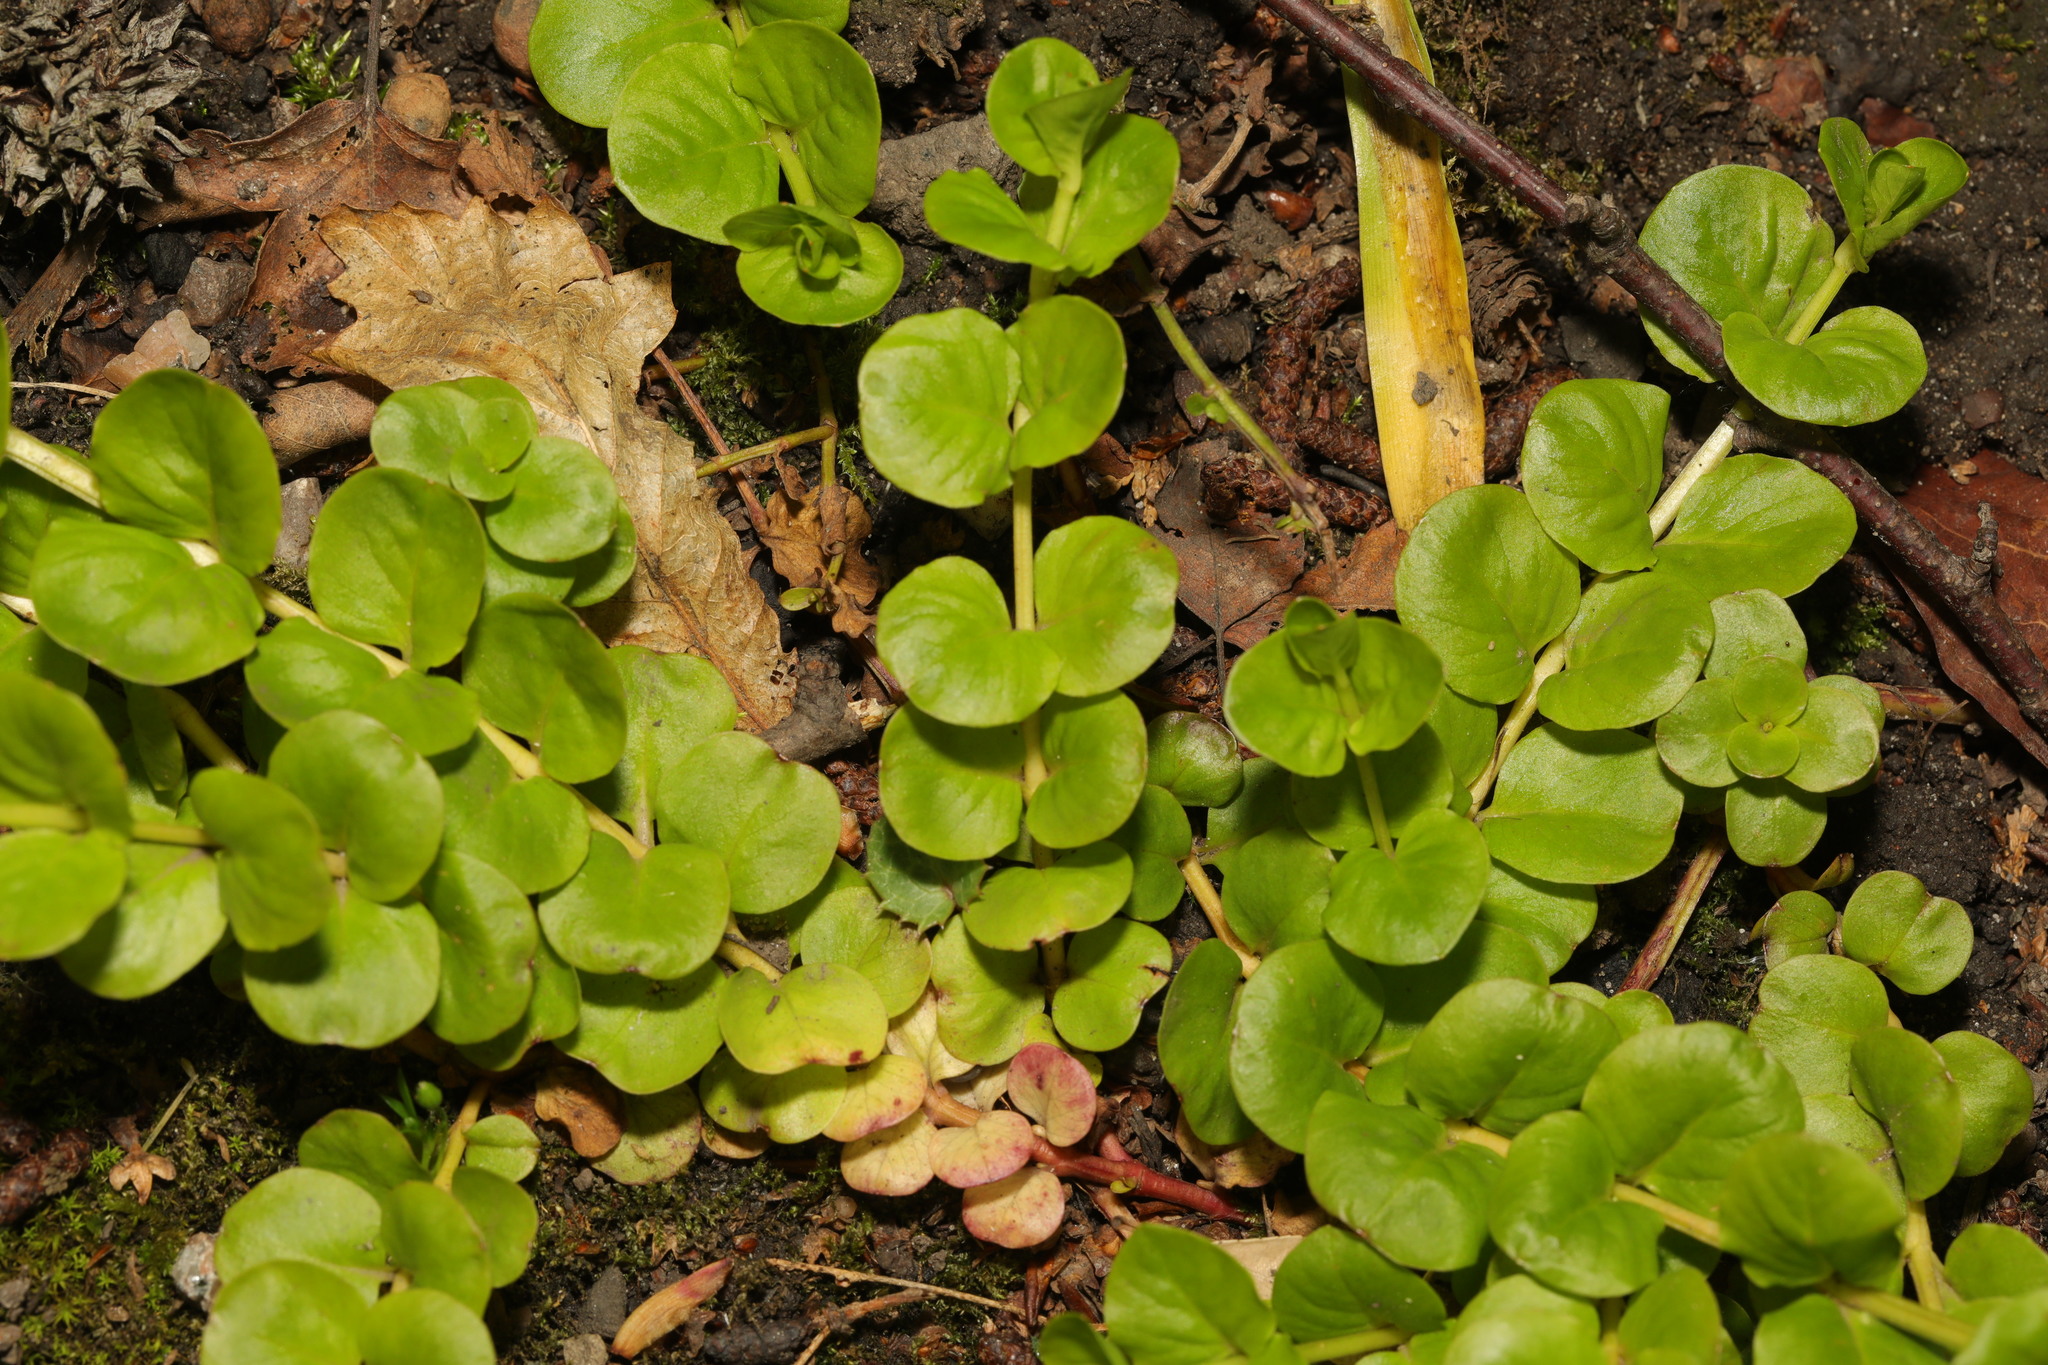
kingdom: Plantae
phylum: Tracheophyta
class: Magnoliopsida
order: Ericales
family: Primulaceae
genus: Lysimachia
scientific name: Lysimachia nummularia
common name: Moneywort
